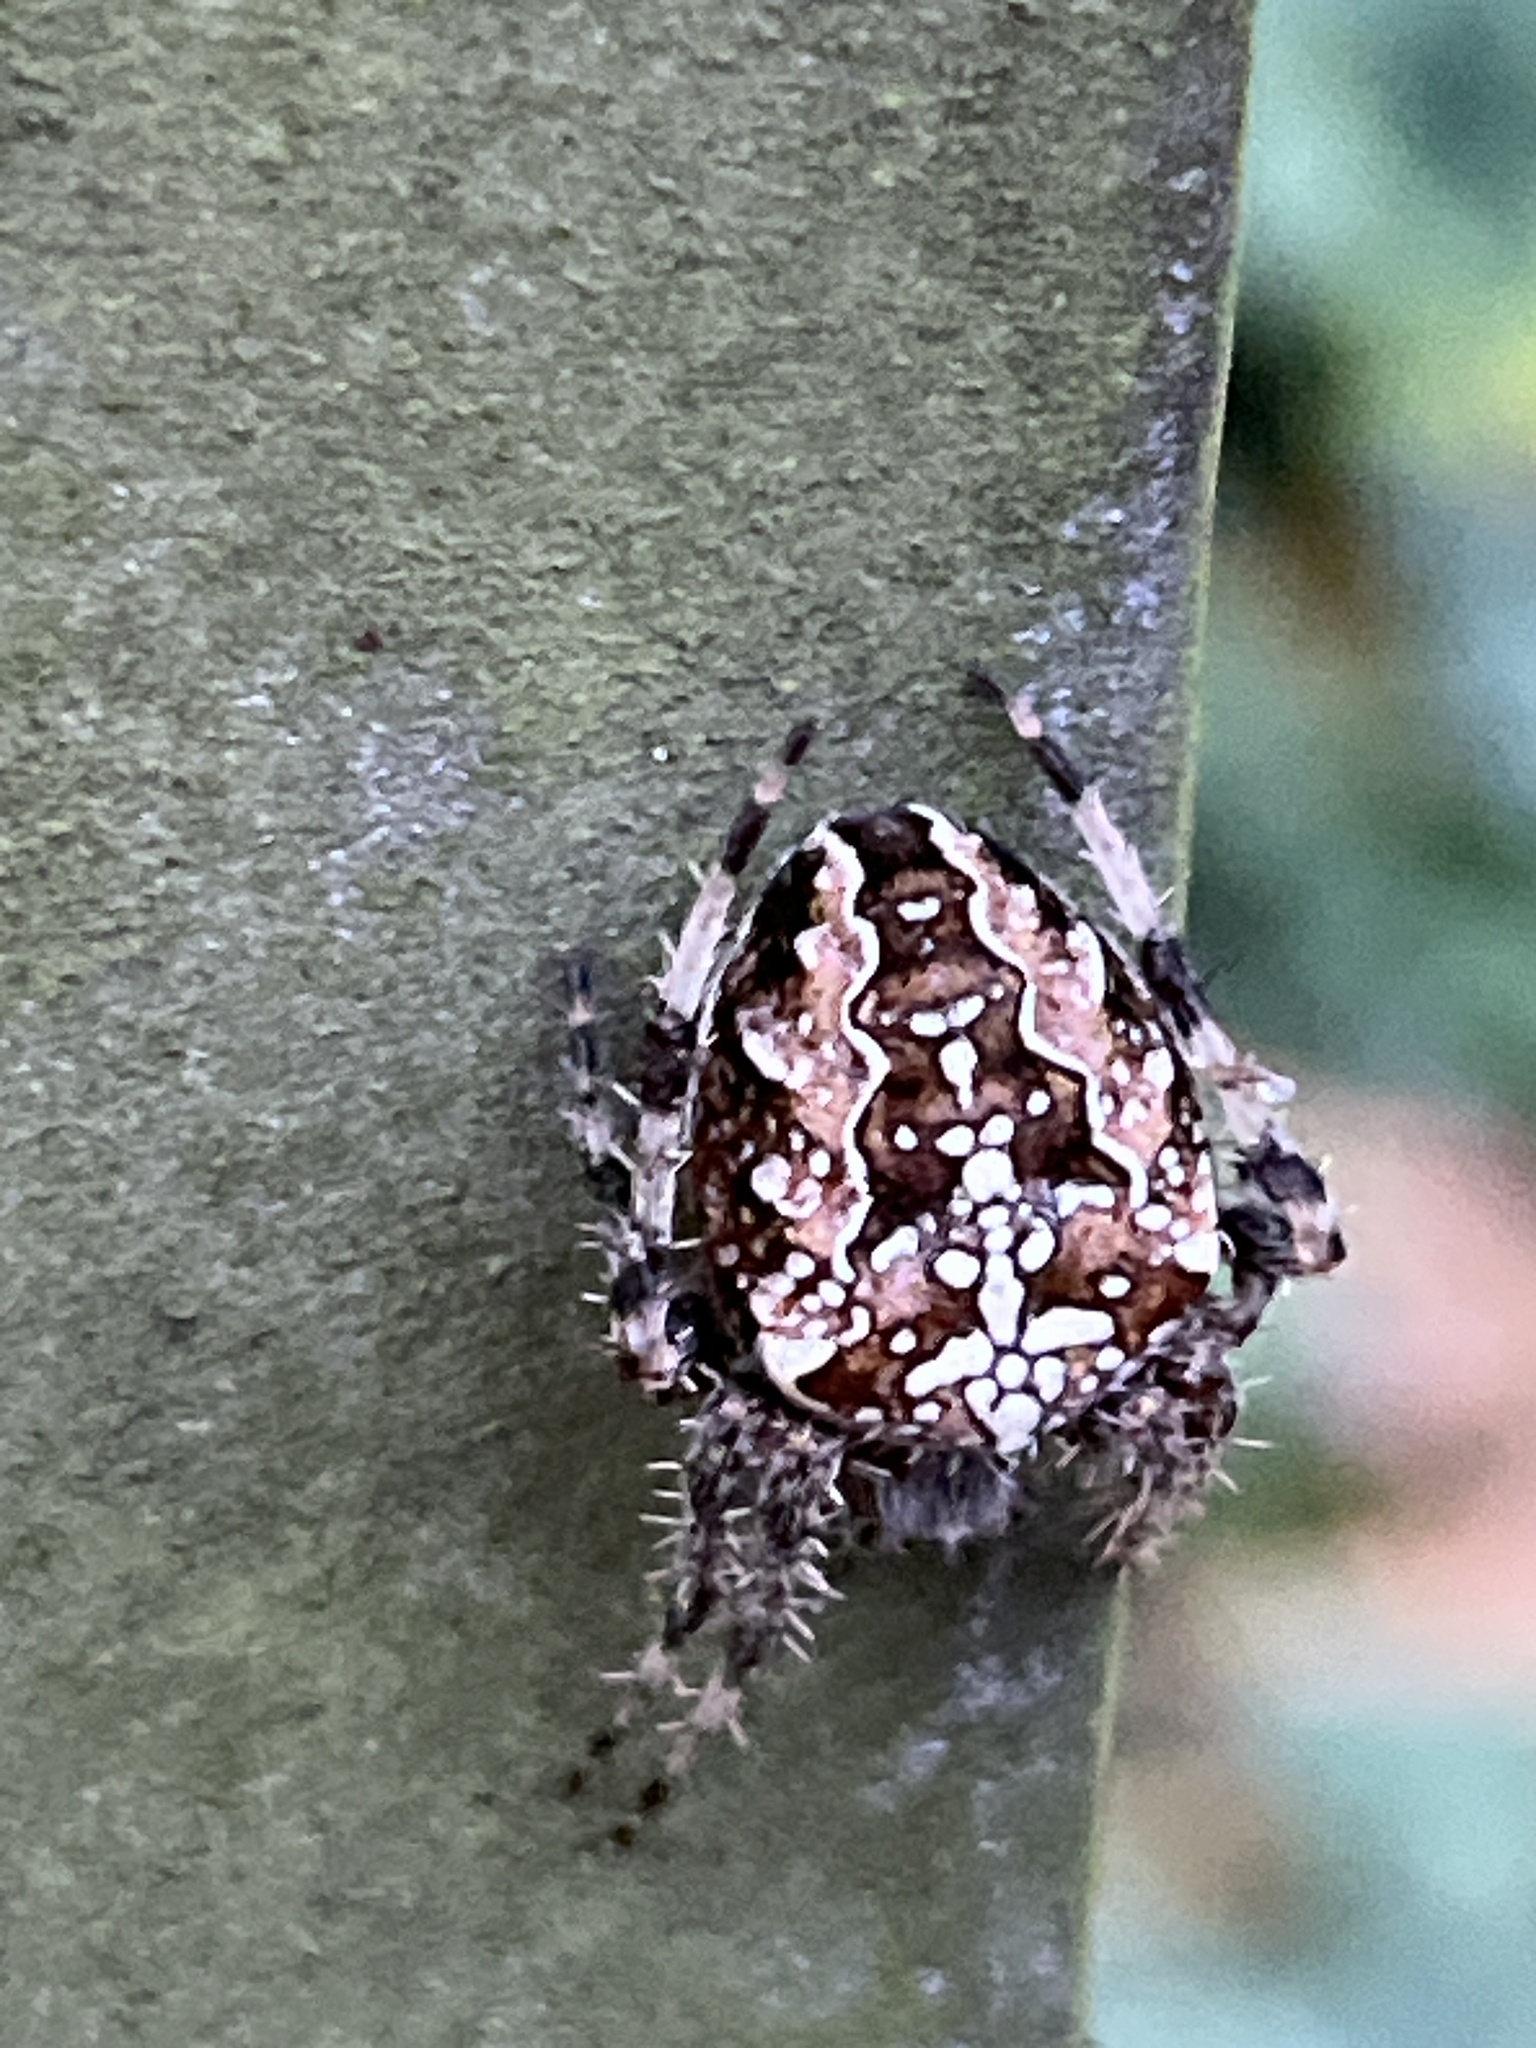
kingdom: Animalia
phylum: Arthropoda
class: Arachnida
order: Araneae
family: Araneidae
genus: Araneus
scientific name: Araneus diadematus
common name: Cross orbweaver
